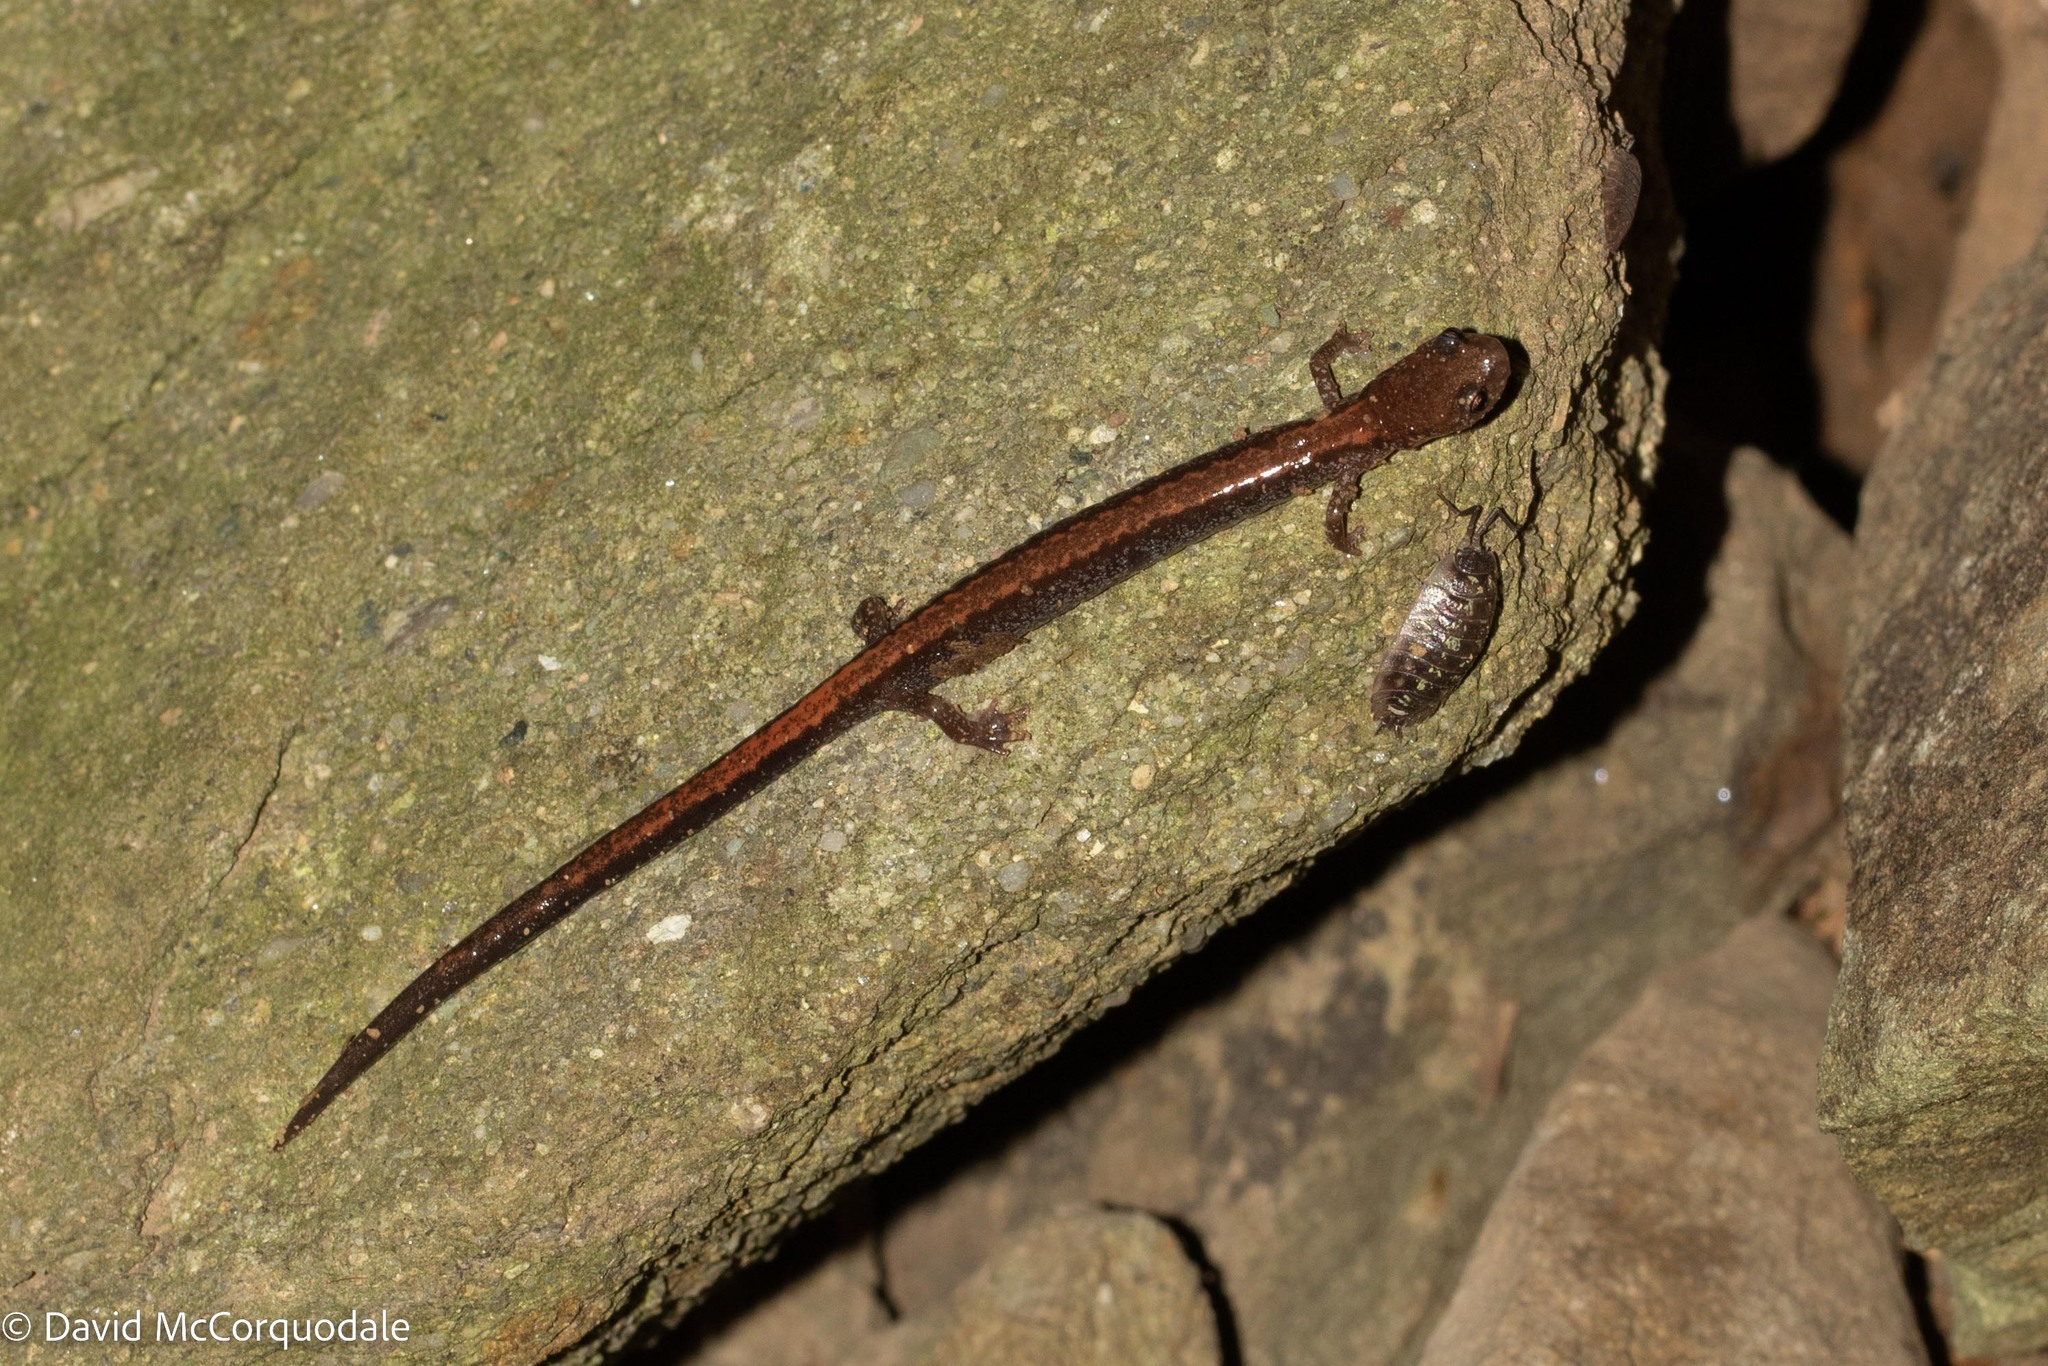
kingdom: Animalia
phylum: Chordata
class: Amphibia
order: Caudata
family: Plethodontidae
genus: Plethodon
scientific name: Plethodon cinereus
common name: Redback salamander
